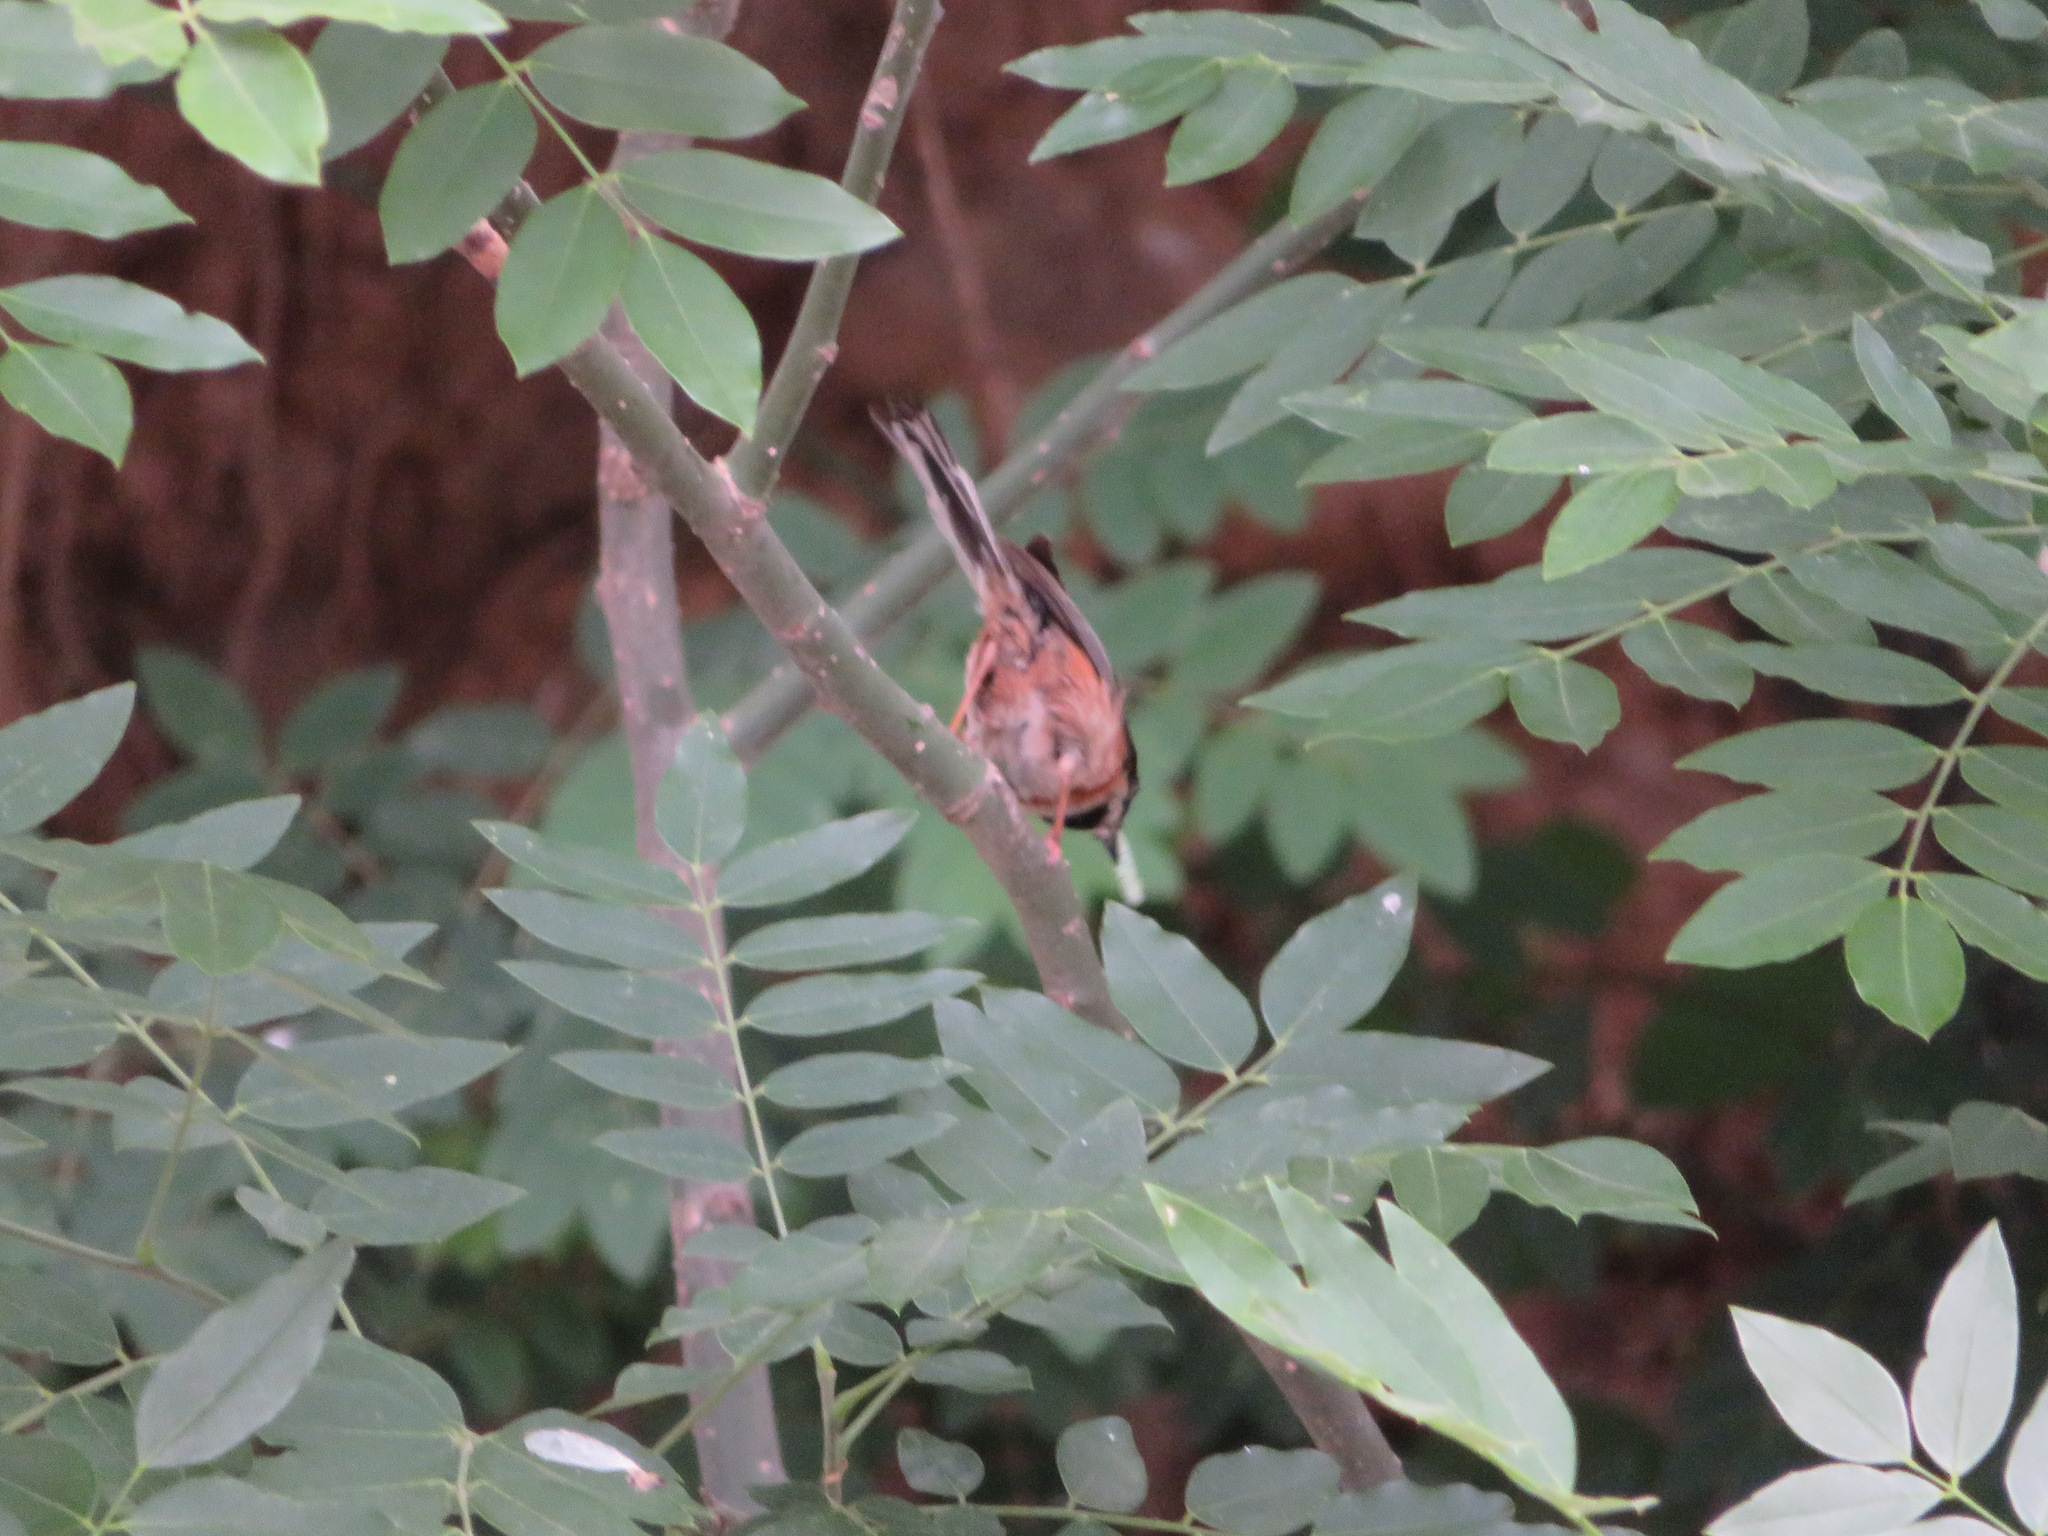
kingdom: Animalia
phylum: Chordata
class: Aves
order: Passeriformes
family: Aegithalidae
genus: Aegithalos
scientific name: Aegithalos concinnus
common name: Black-throated bushtit
